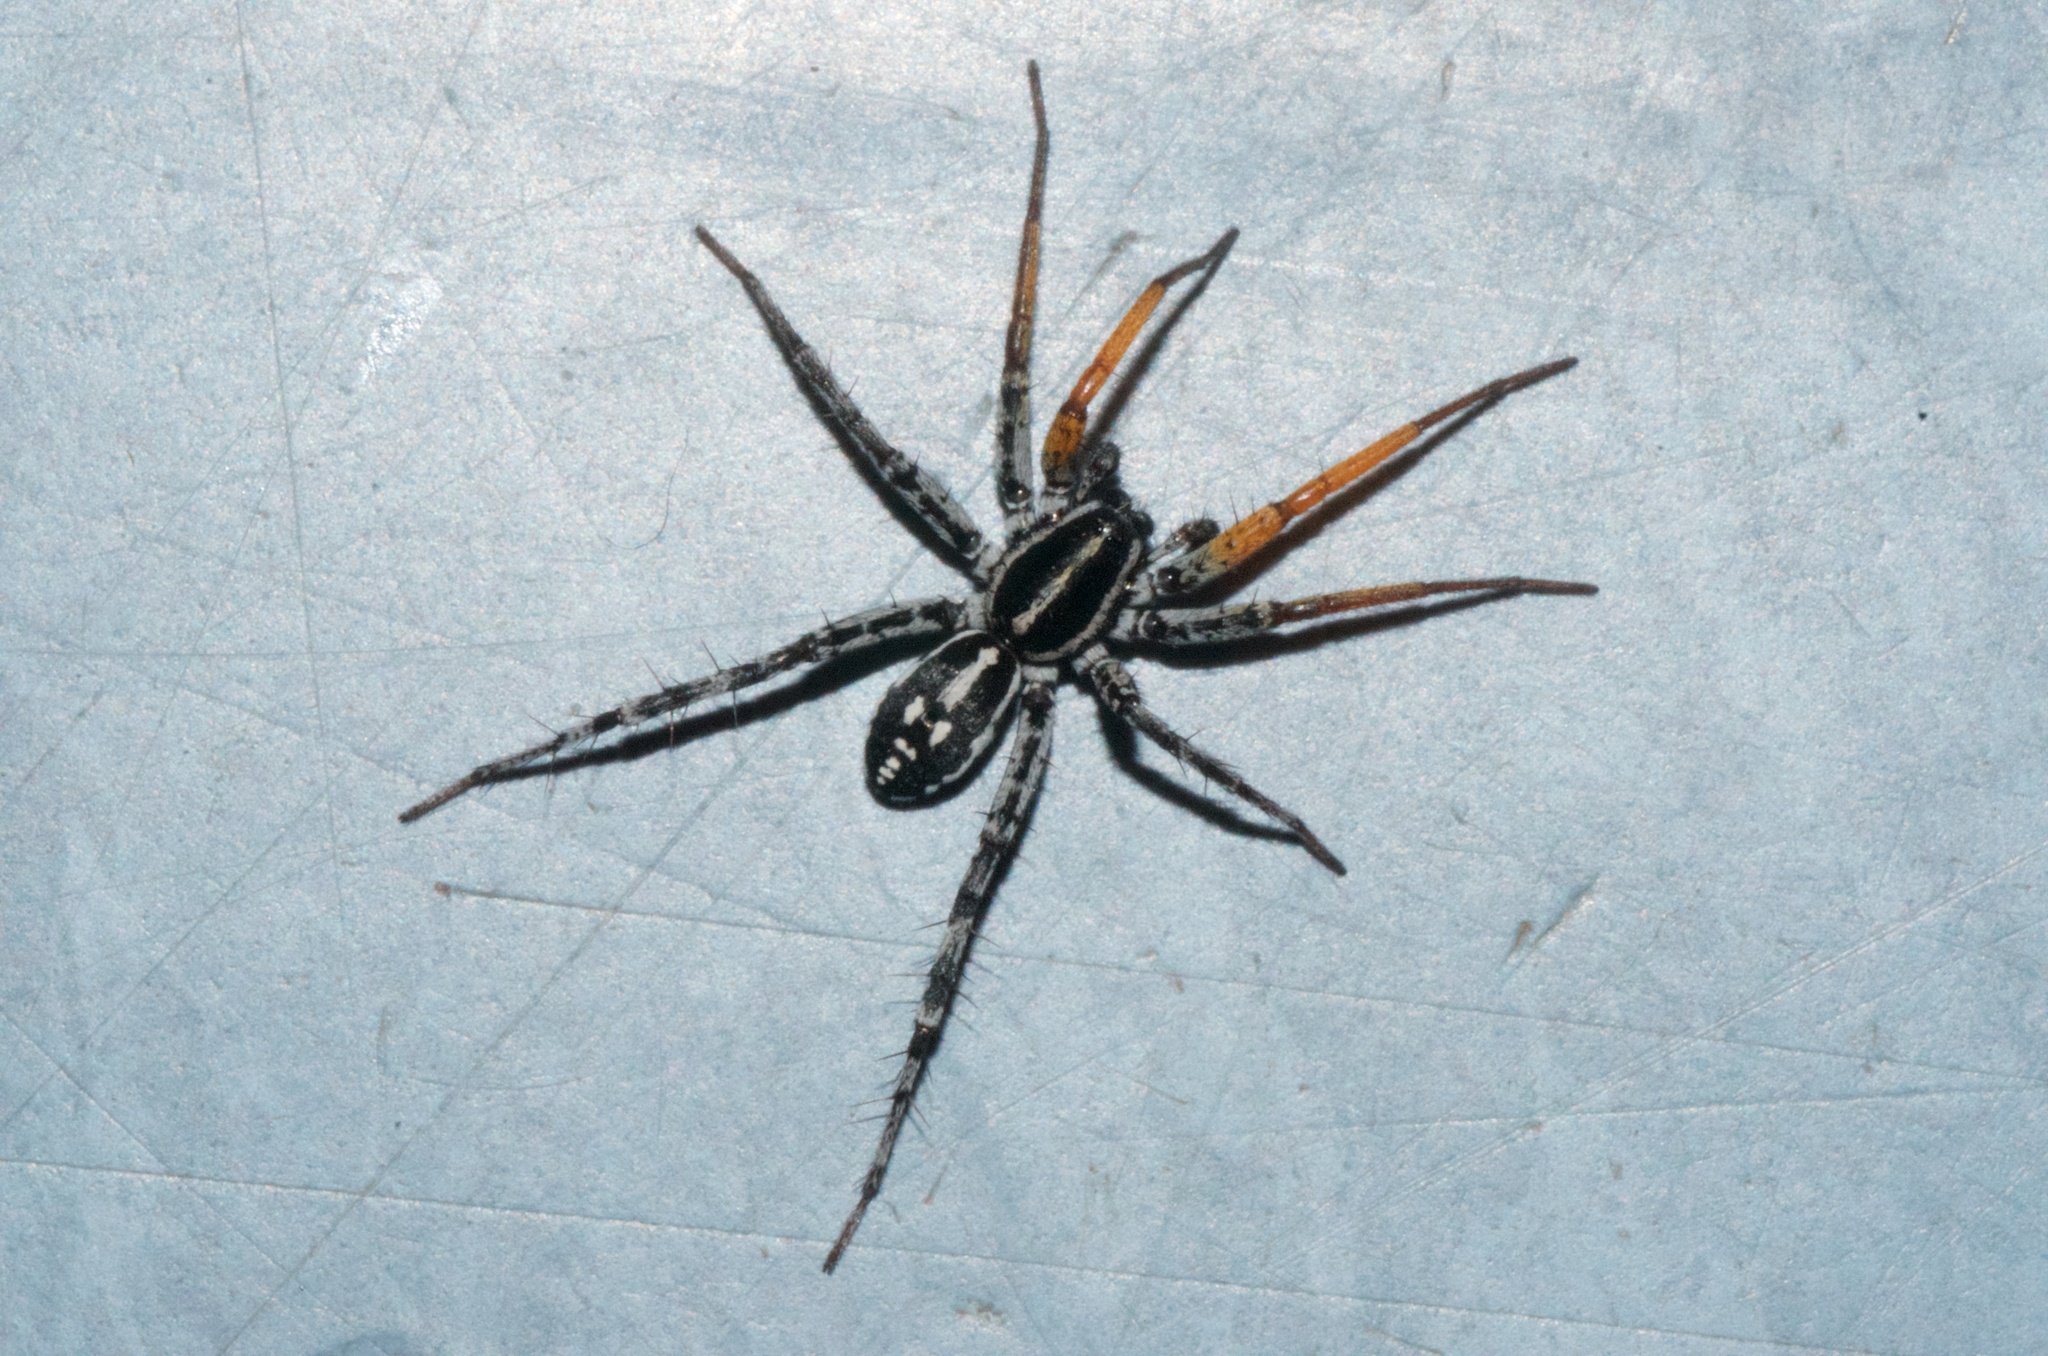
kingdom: Animalia
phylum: Arthropoda
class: Arachnida
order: Araneae
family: Corinnidae
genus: Nyssus
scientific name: Nyssus coloripes
